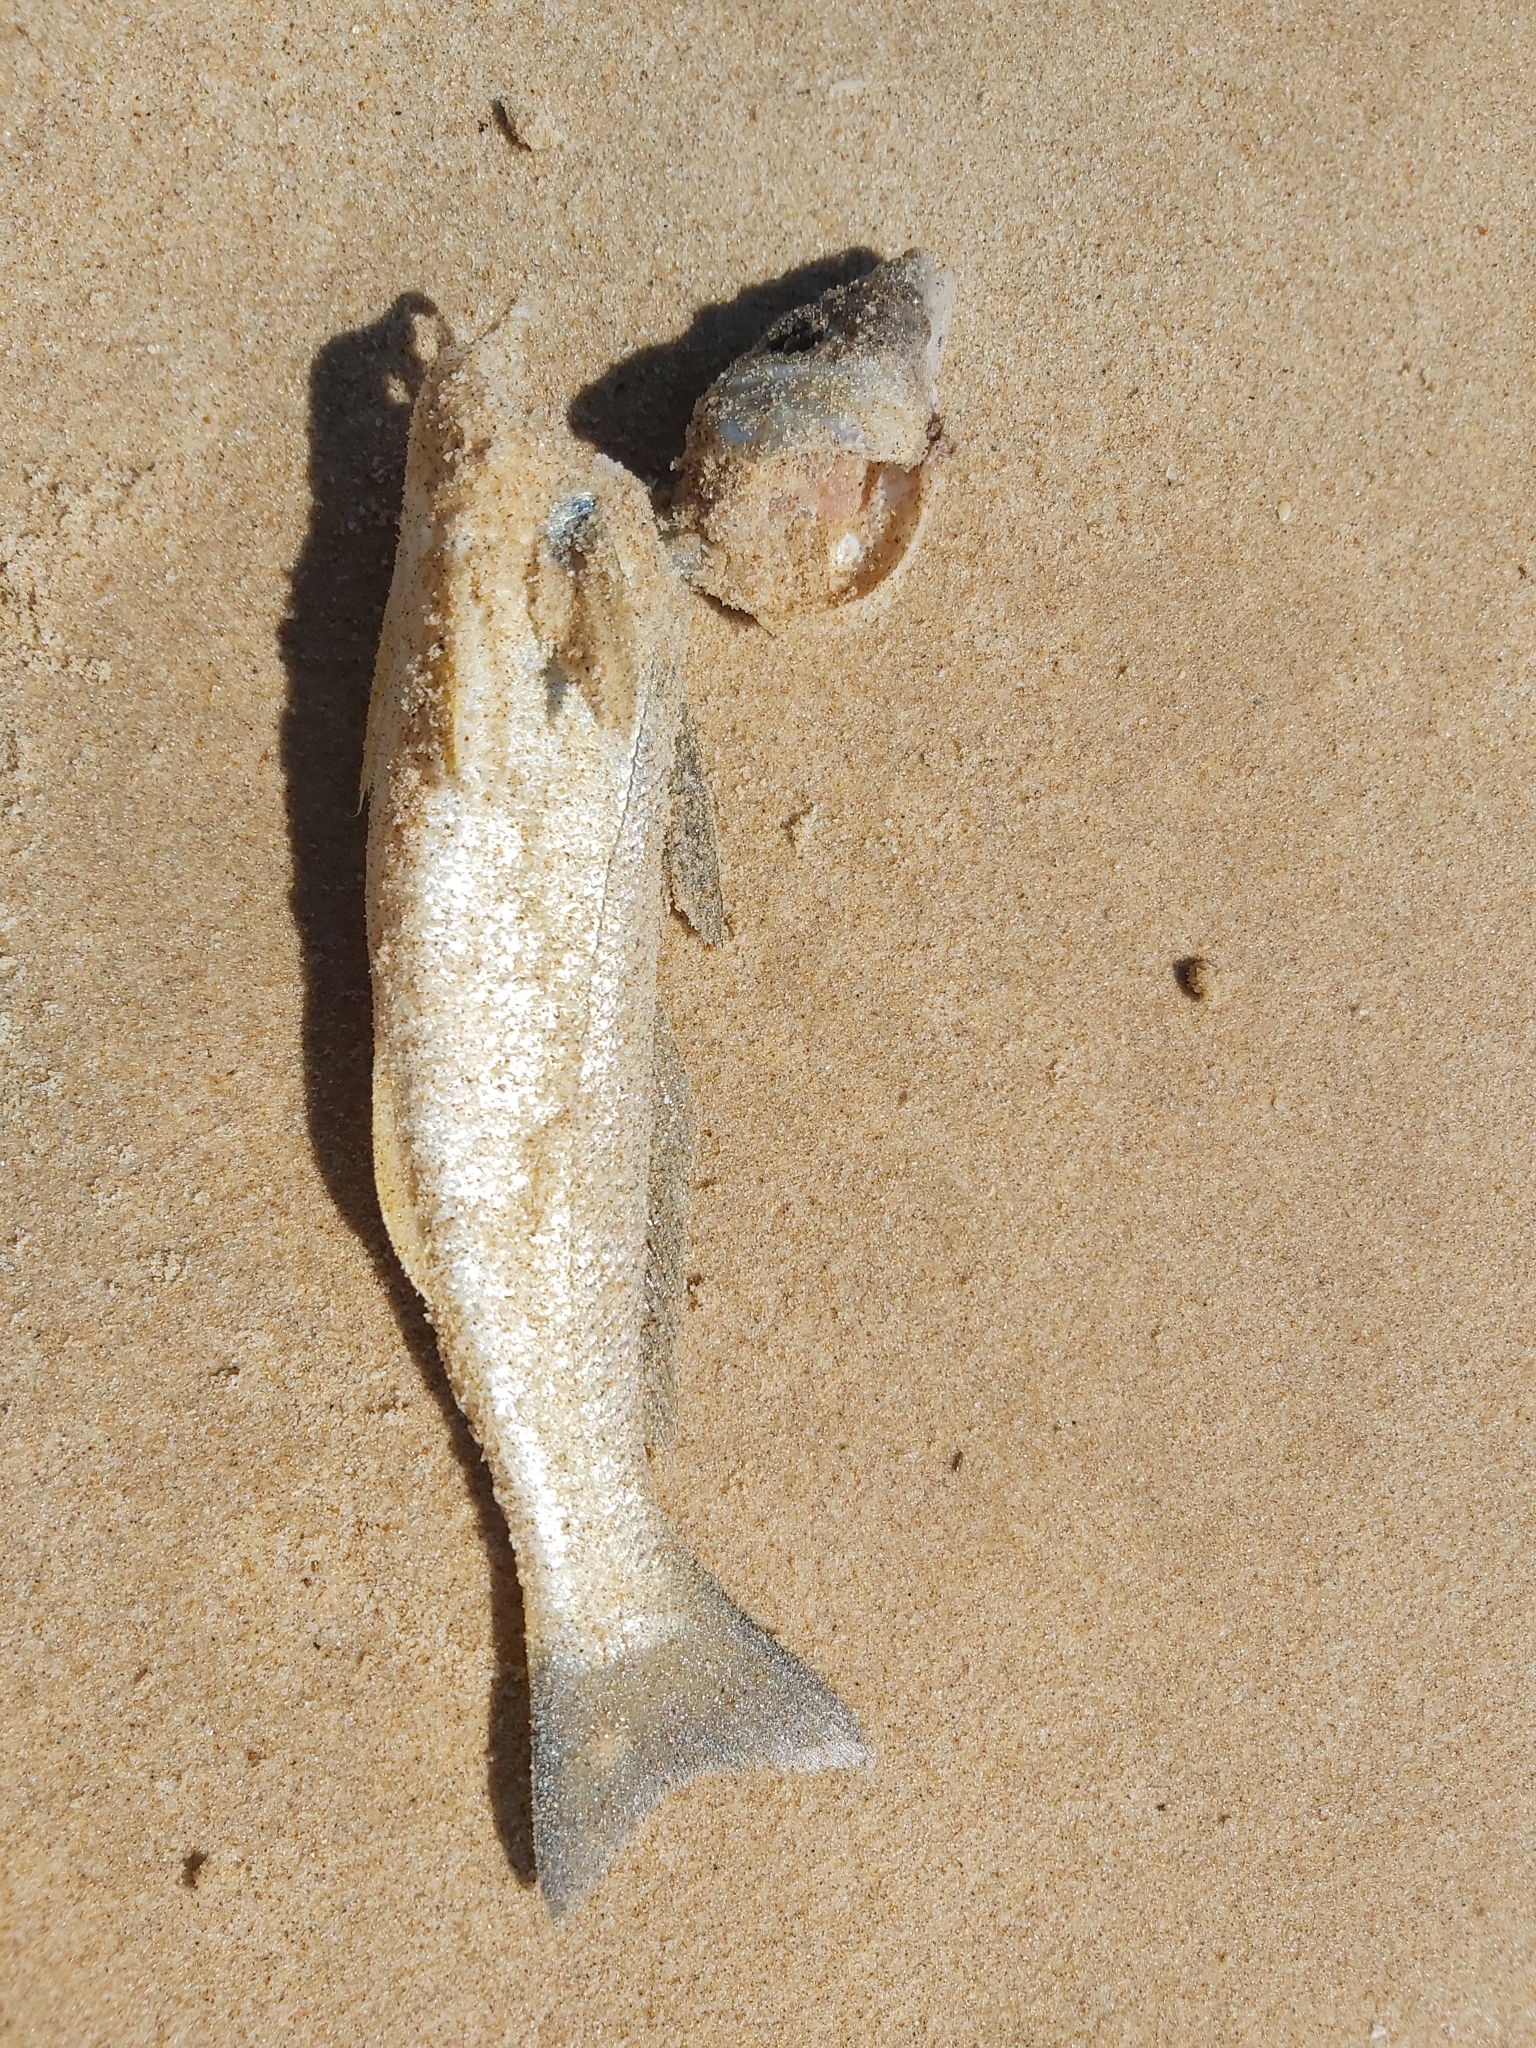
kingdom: Animalia
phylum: Chordata
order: Perciformes
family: Sillaginidae
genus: Sillago
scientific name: Sillago ciliata
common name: Sand sillago
